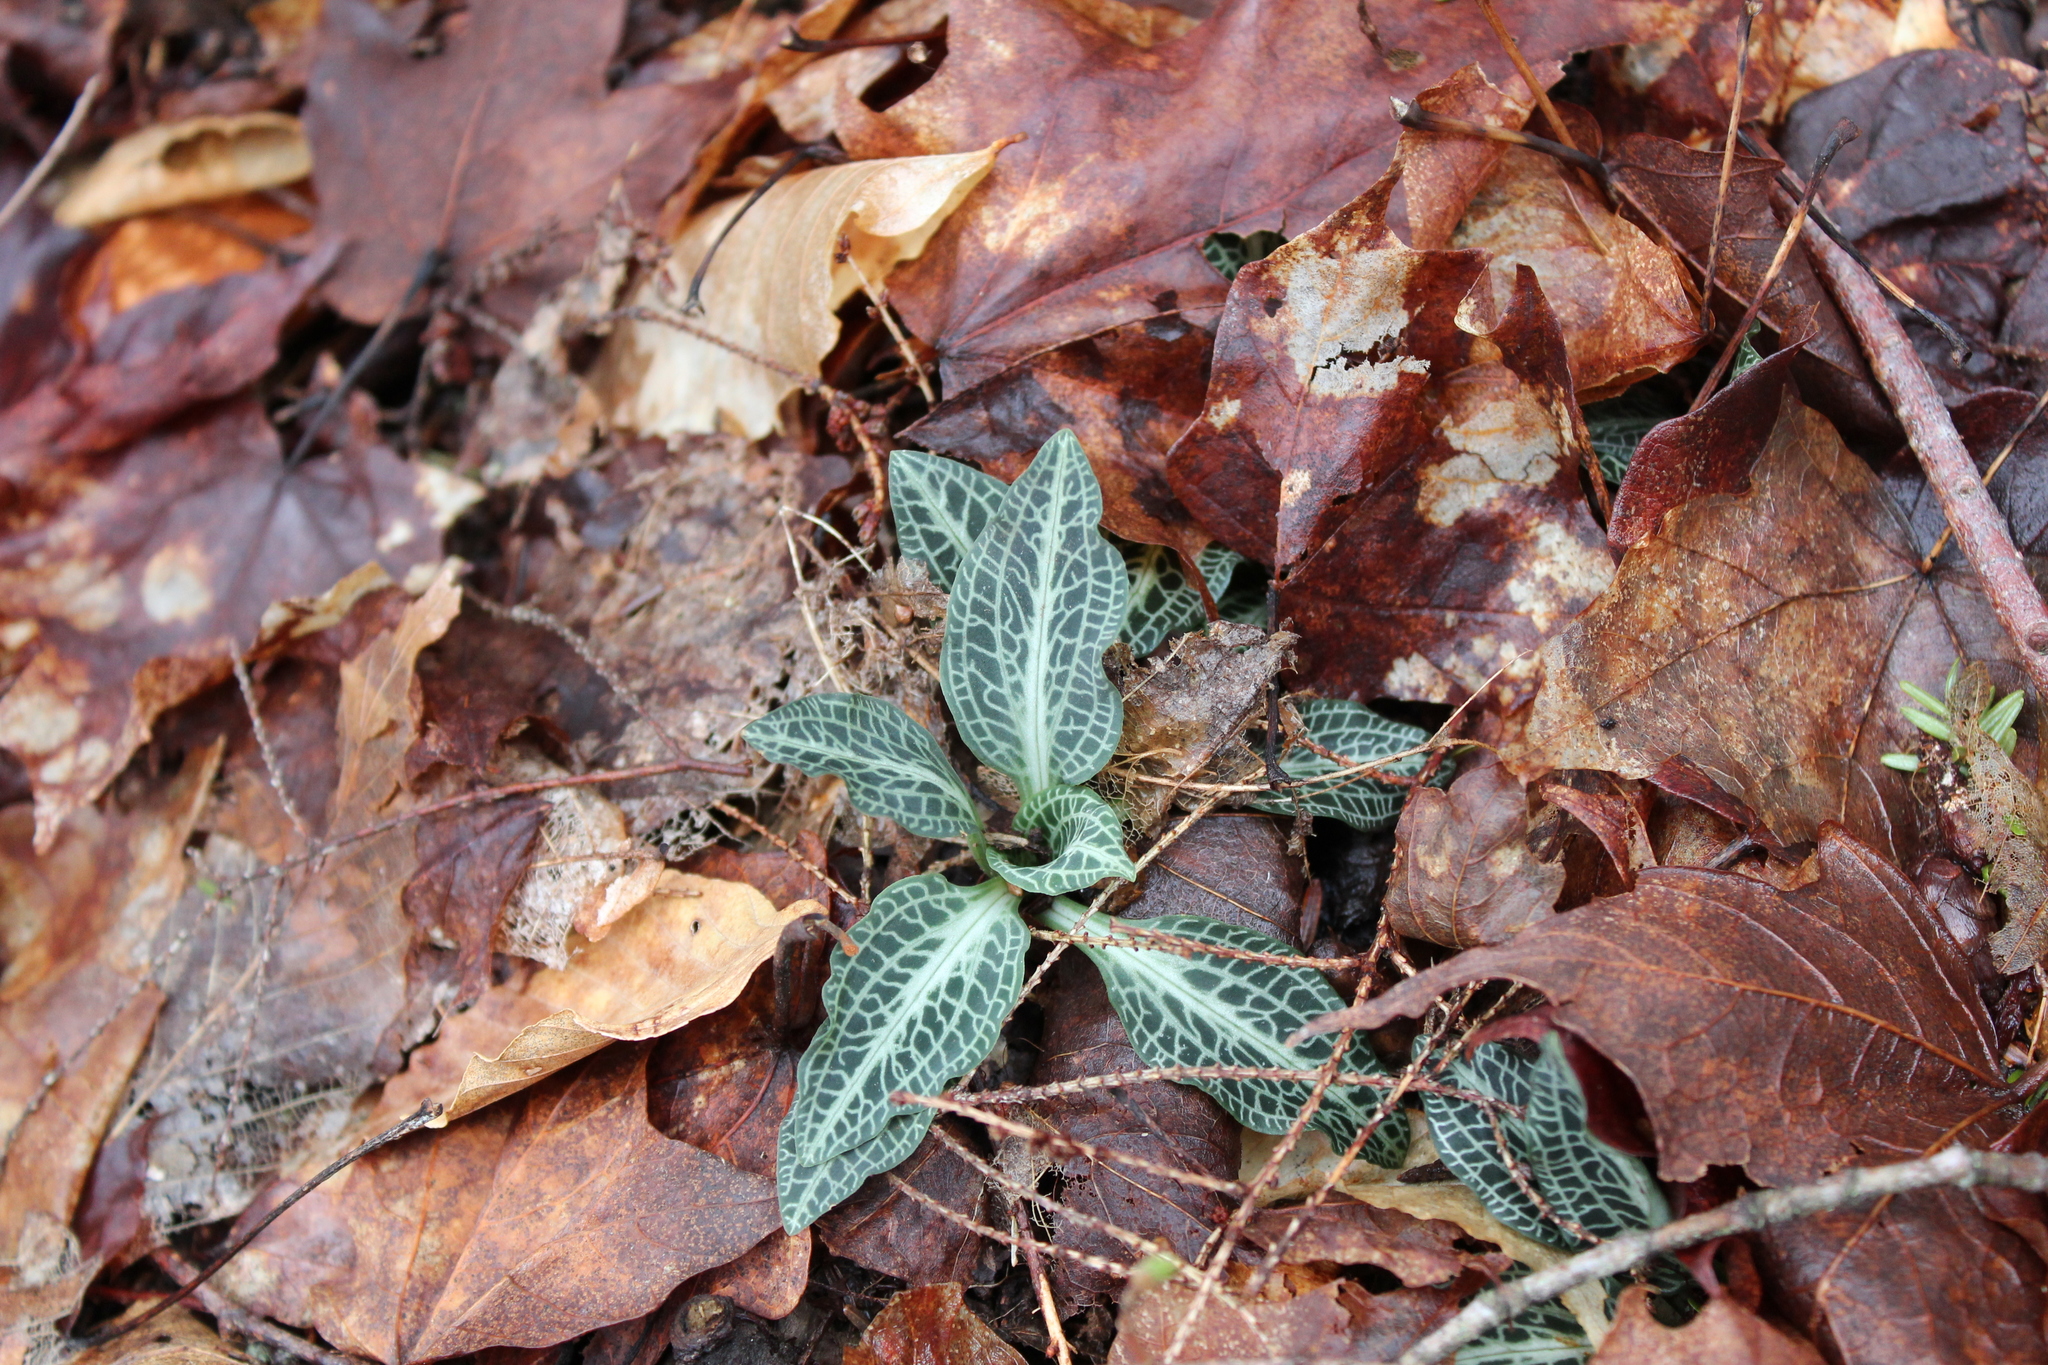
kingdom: Plantae
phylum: Tracheophyta
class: Liliopsida
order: Asparagales
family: Orchidaceae
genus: Goodyera
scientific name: Goodyera pubescens
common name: Downy rattlesnake-plantain
